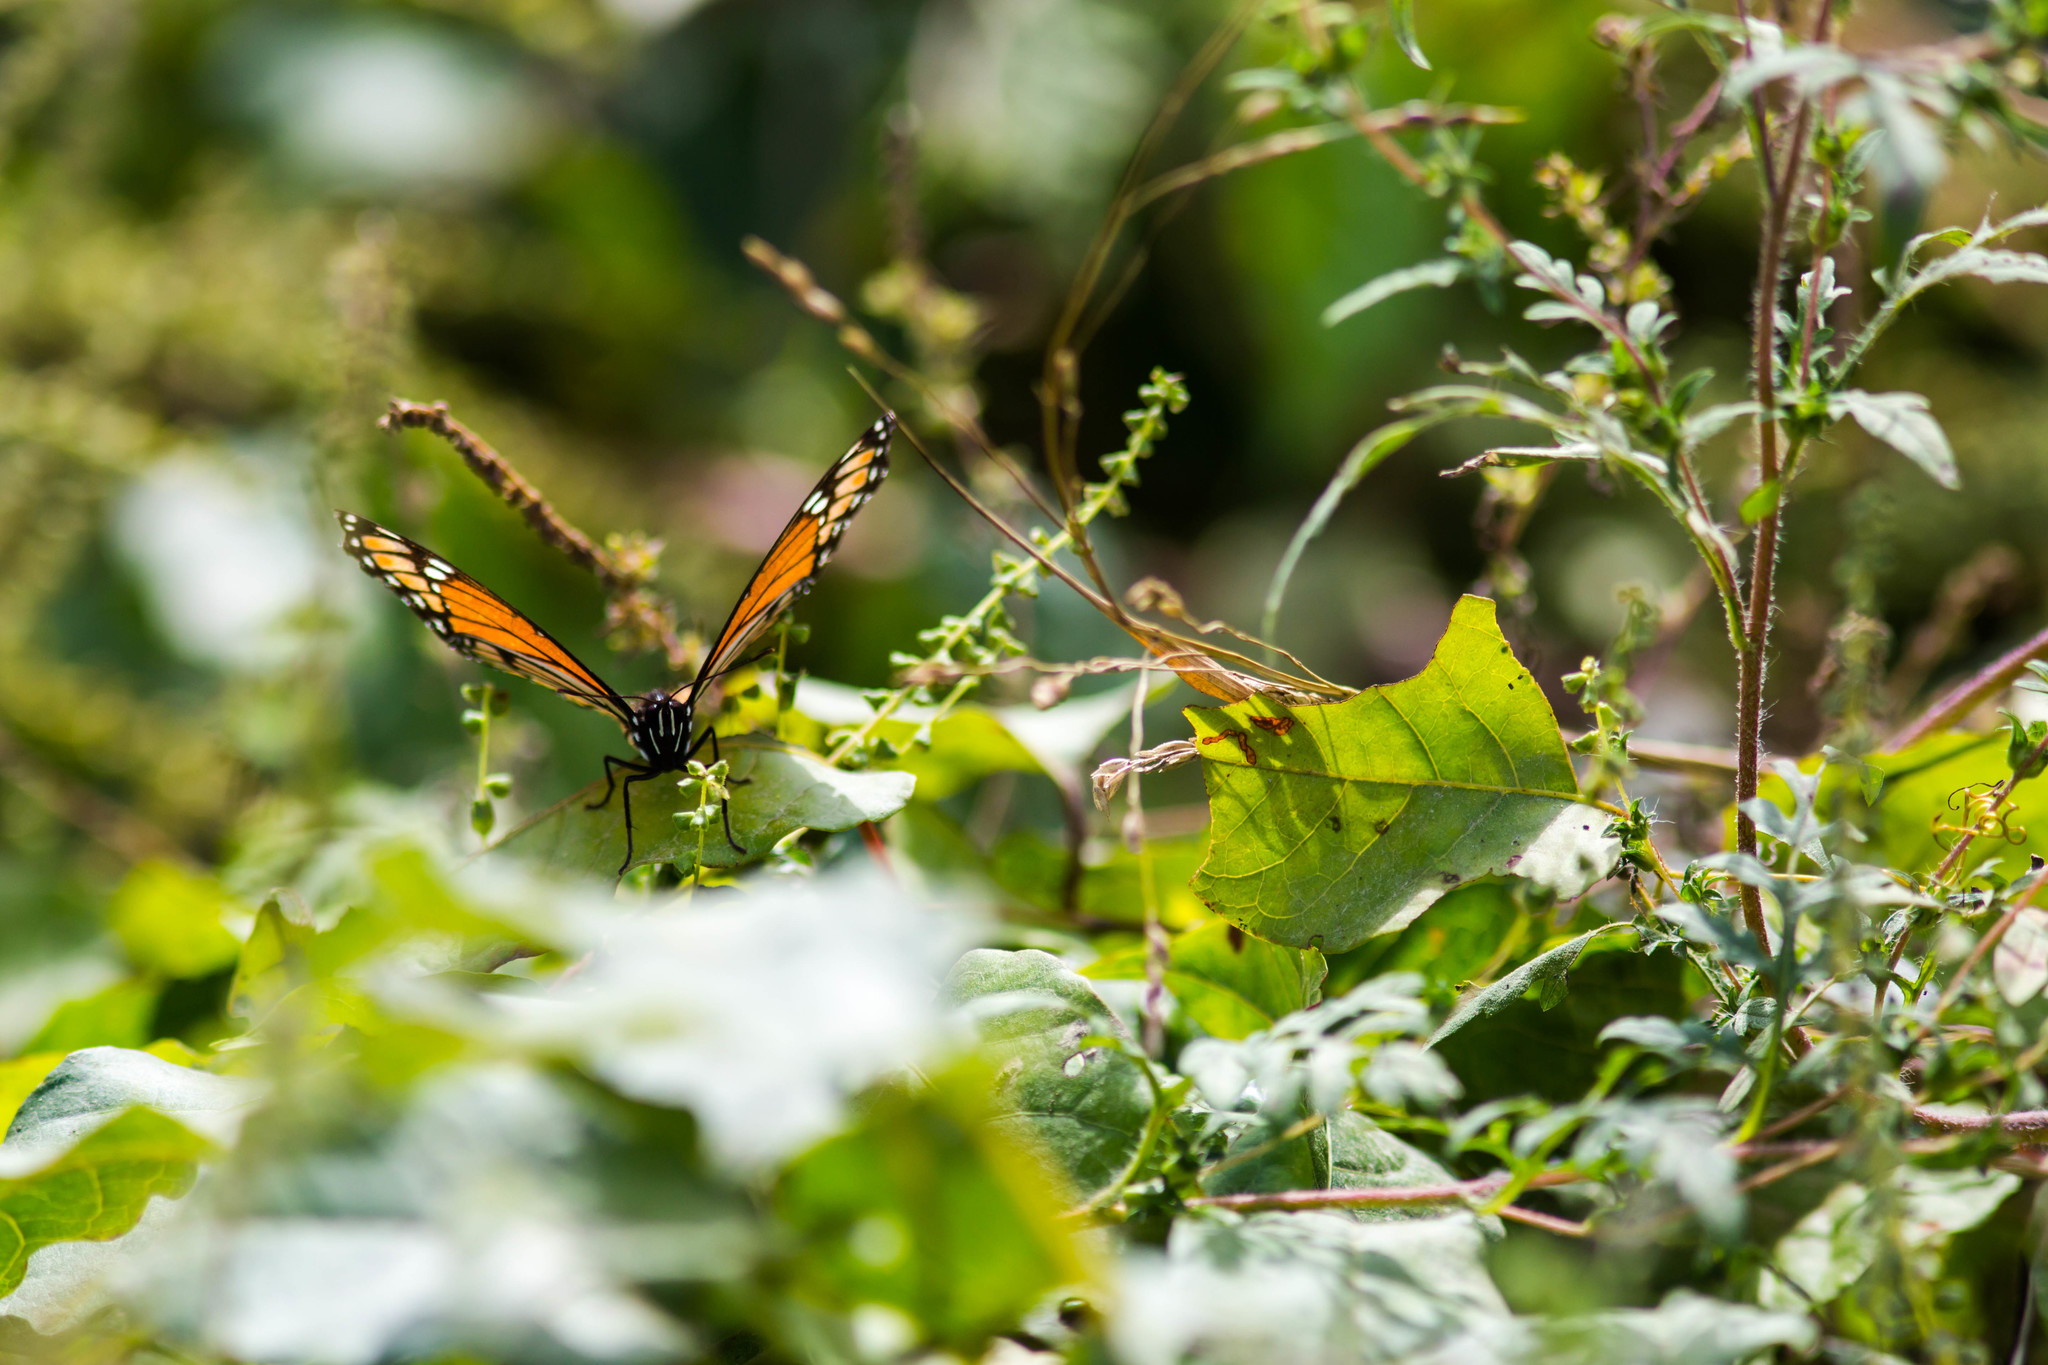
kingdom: Animalia
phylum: Arthropoda
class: Insecta
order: Lepidoptera
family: Nymphalidae
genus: Limenitis
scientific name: Limenitis archippus
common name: Viceroy
